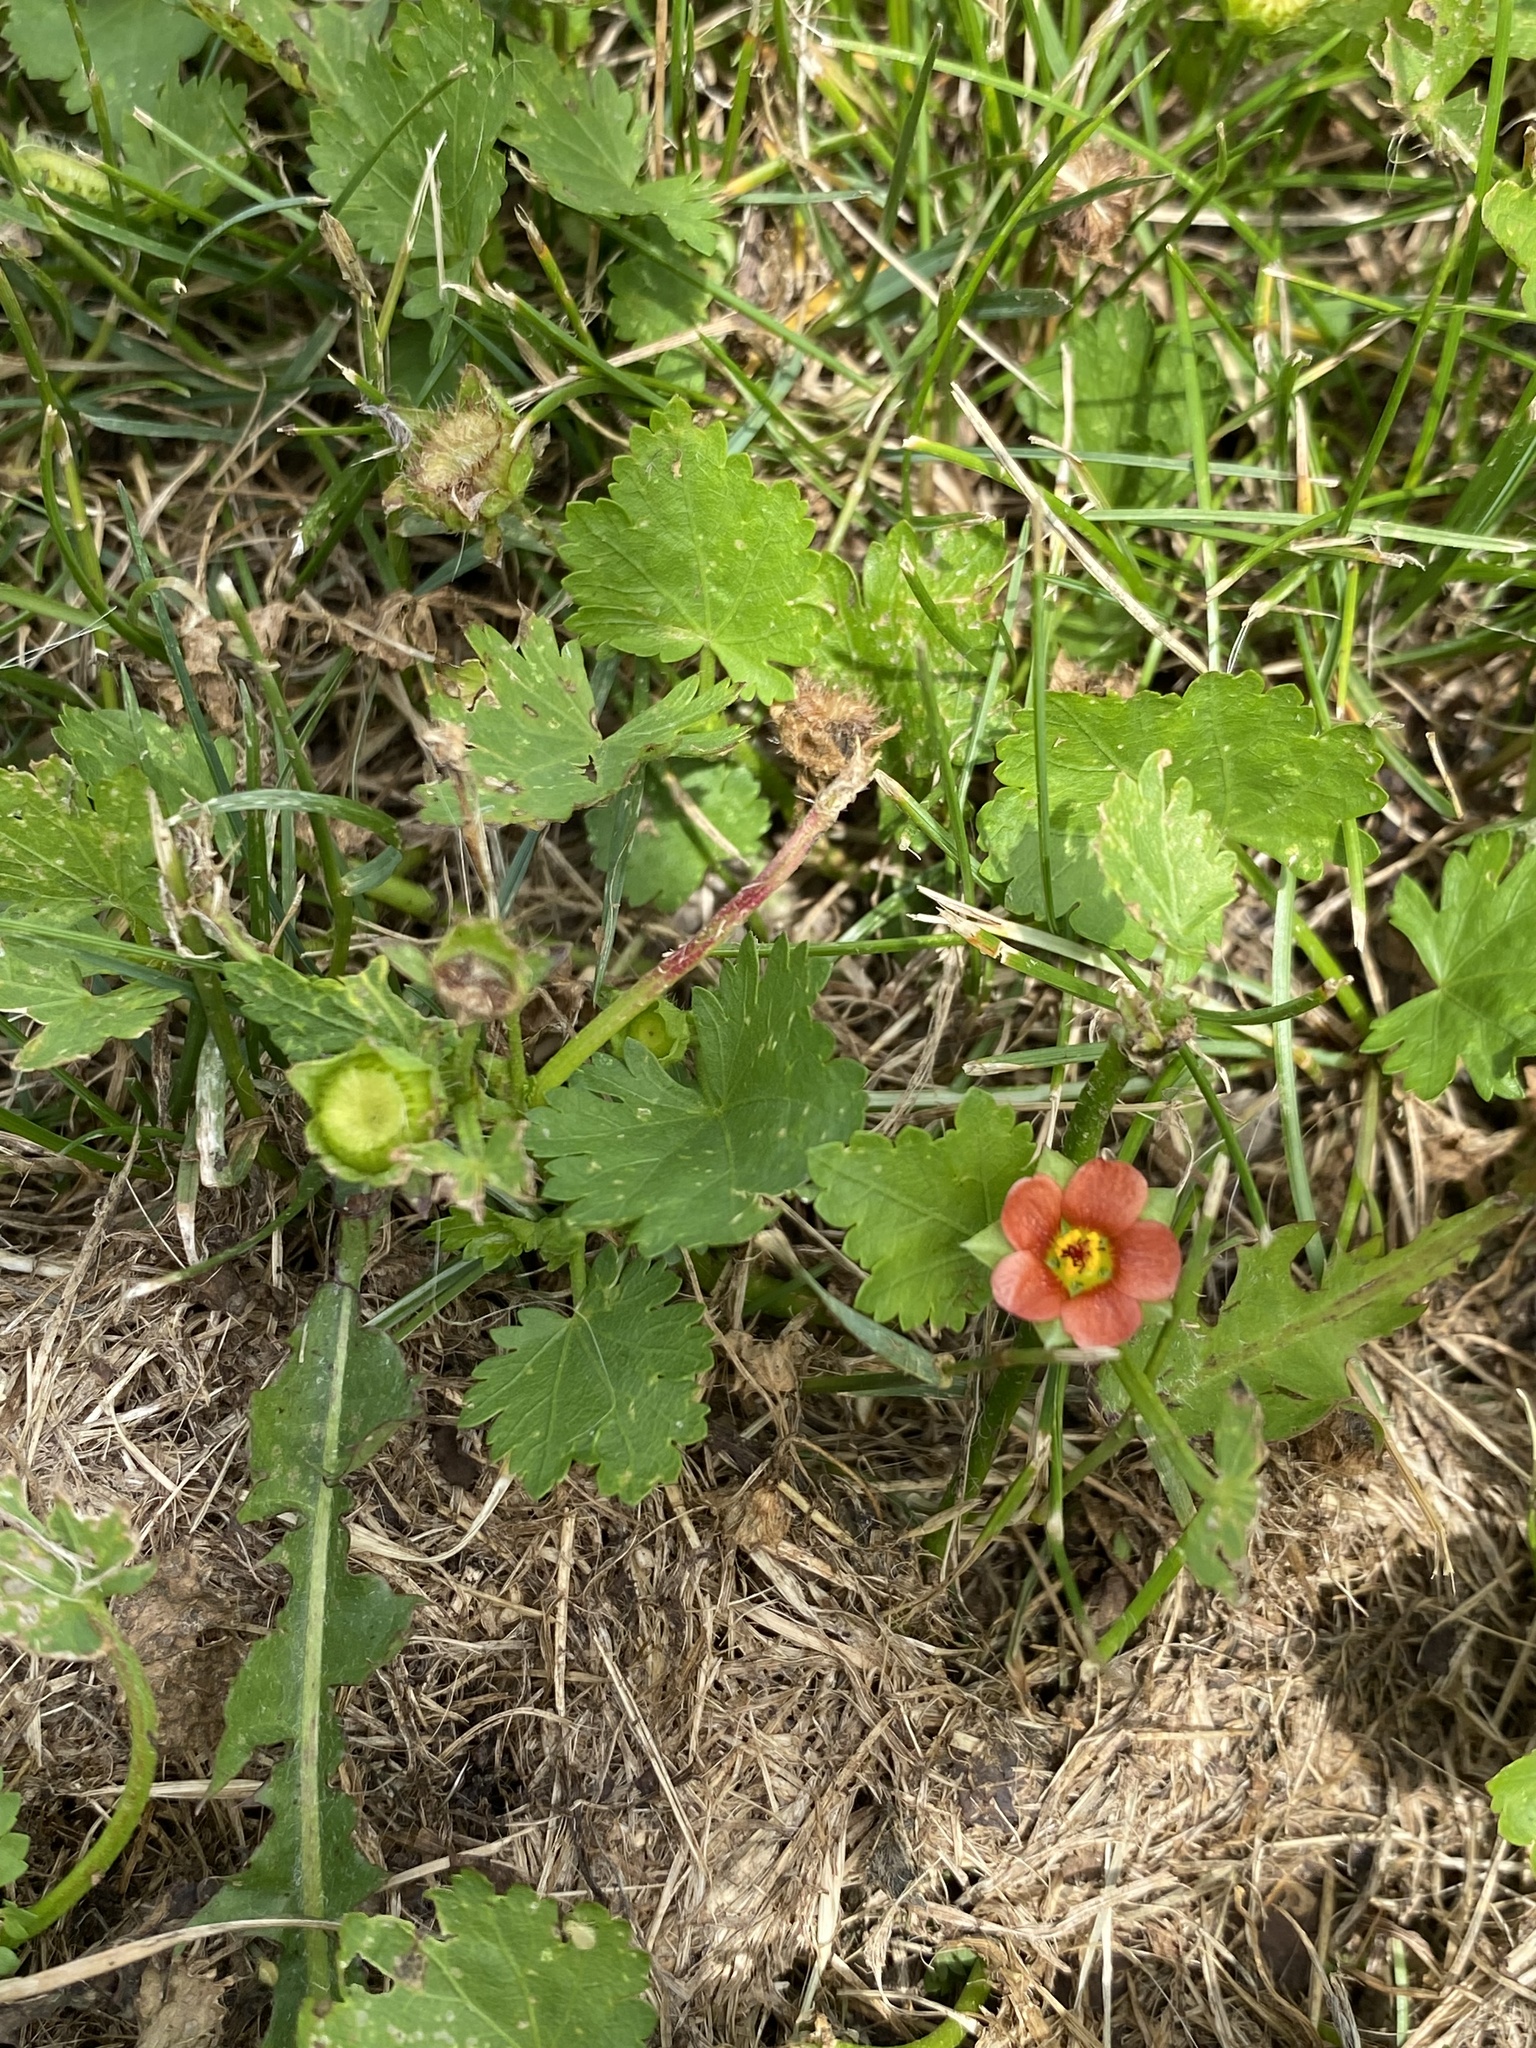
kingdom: Plantae
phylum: Tracheophyta
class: Magnoliopsida
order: Malvales
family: Malvaceae
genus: Modiola
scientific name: Modiola caroliniana
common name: Carolina bristlemallow
